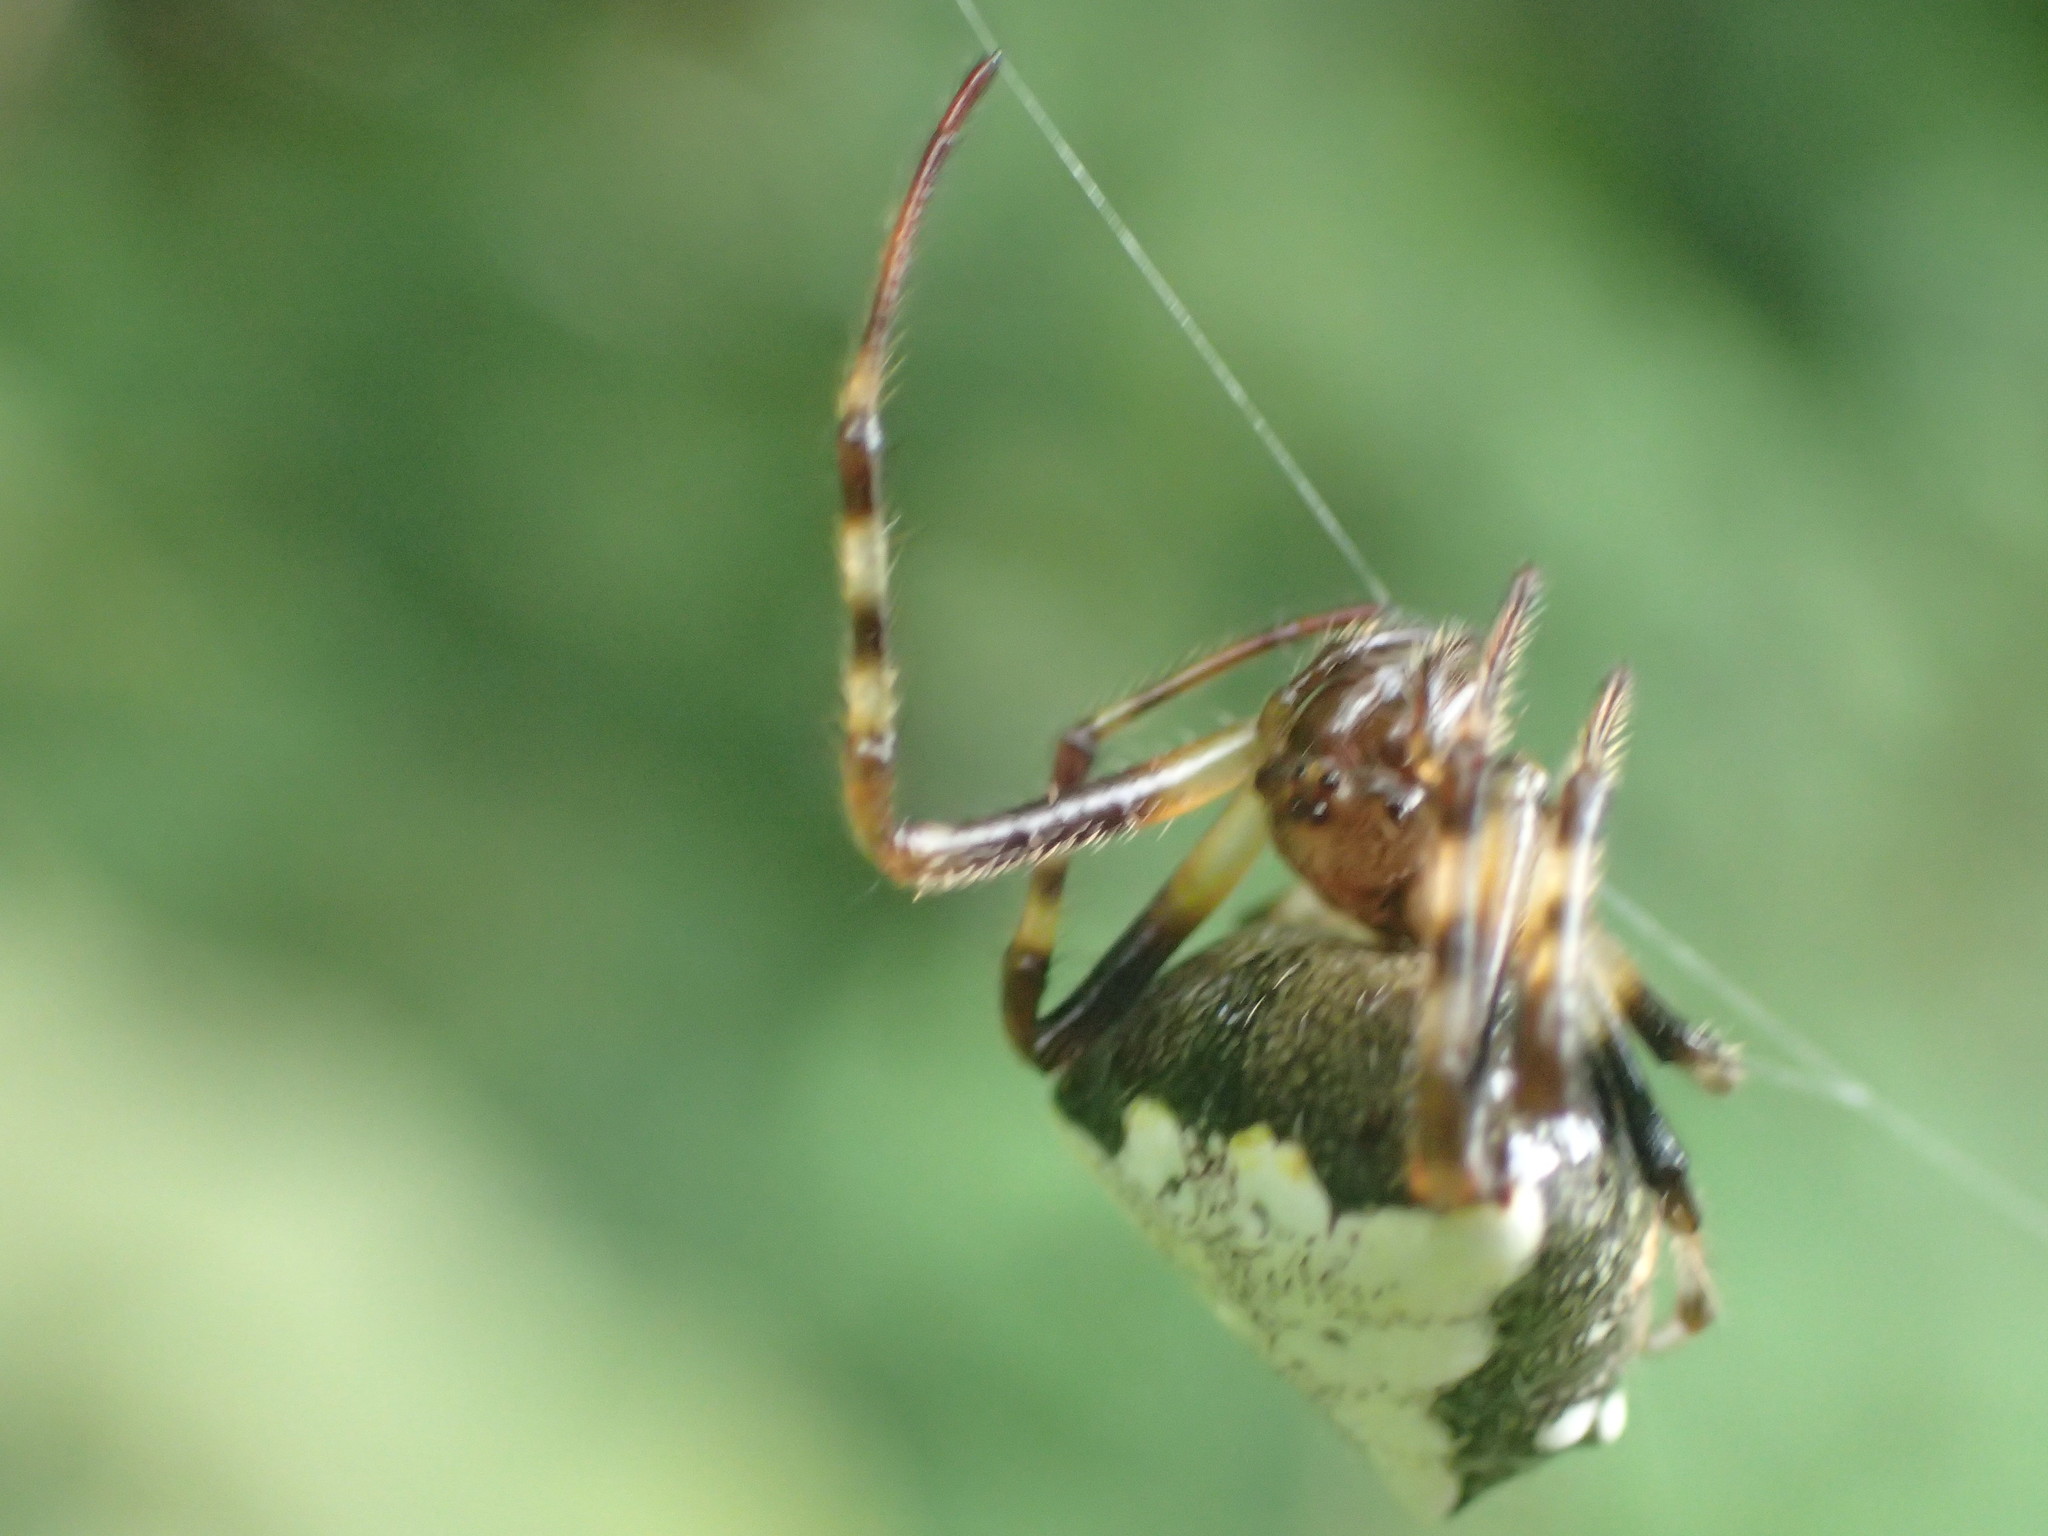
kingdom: Animalia
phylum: Arthropoda
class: Arachnida
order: Araneae
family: Araneidae
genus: Verrucosa
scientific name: Verrucosa arenata
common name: Orb weavers
